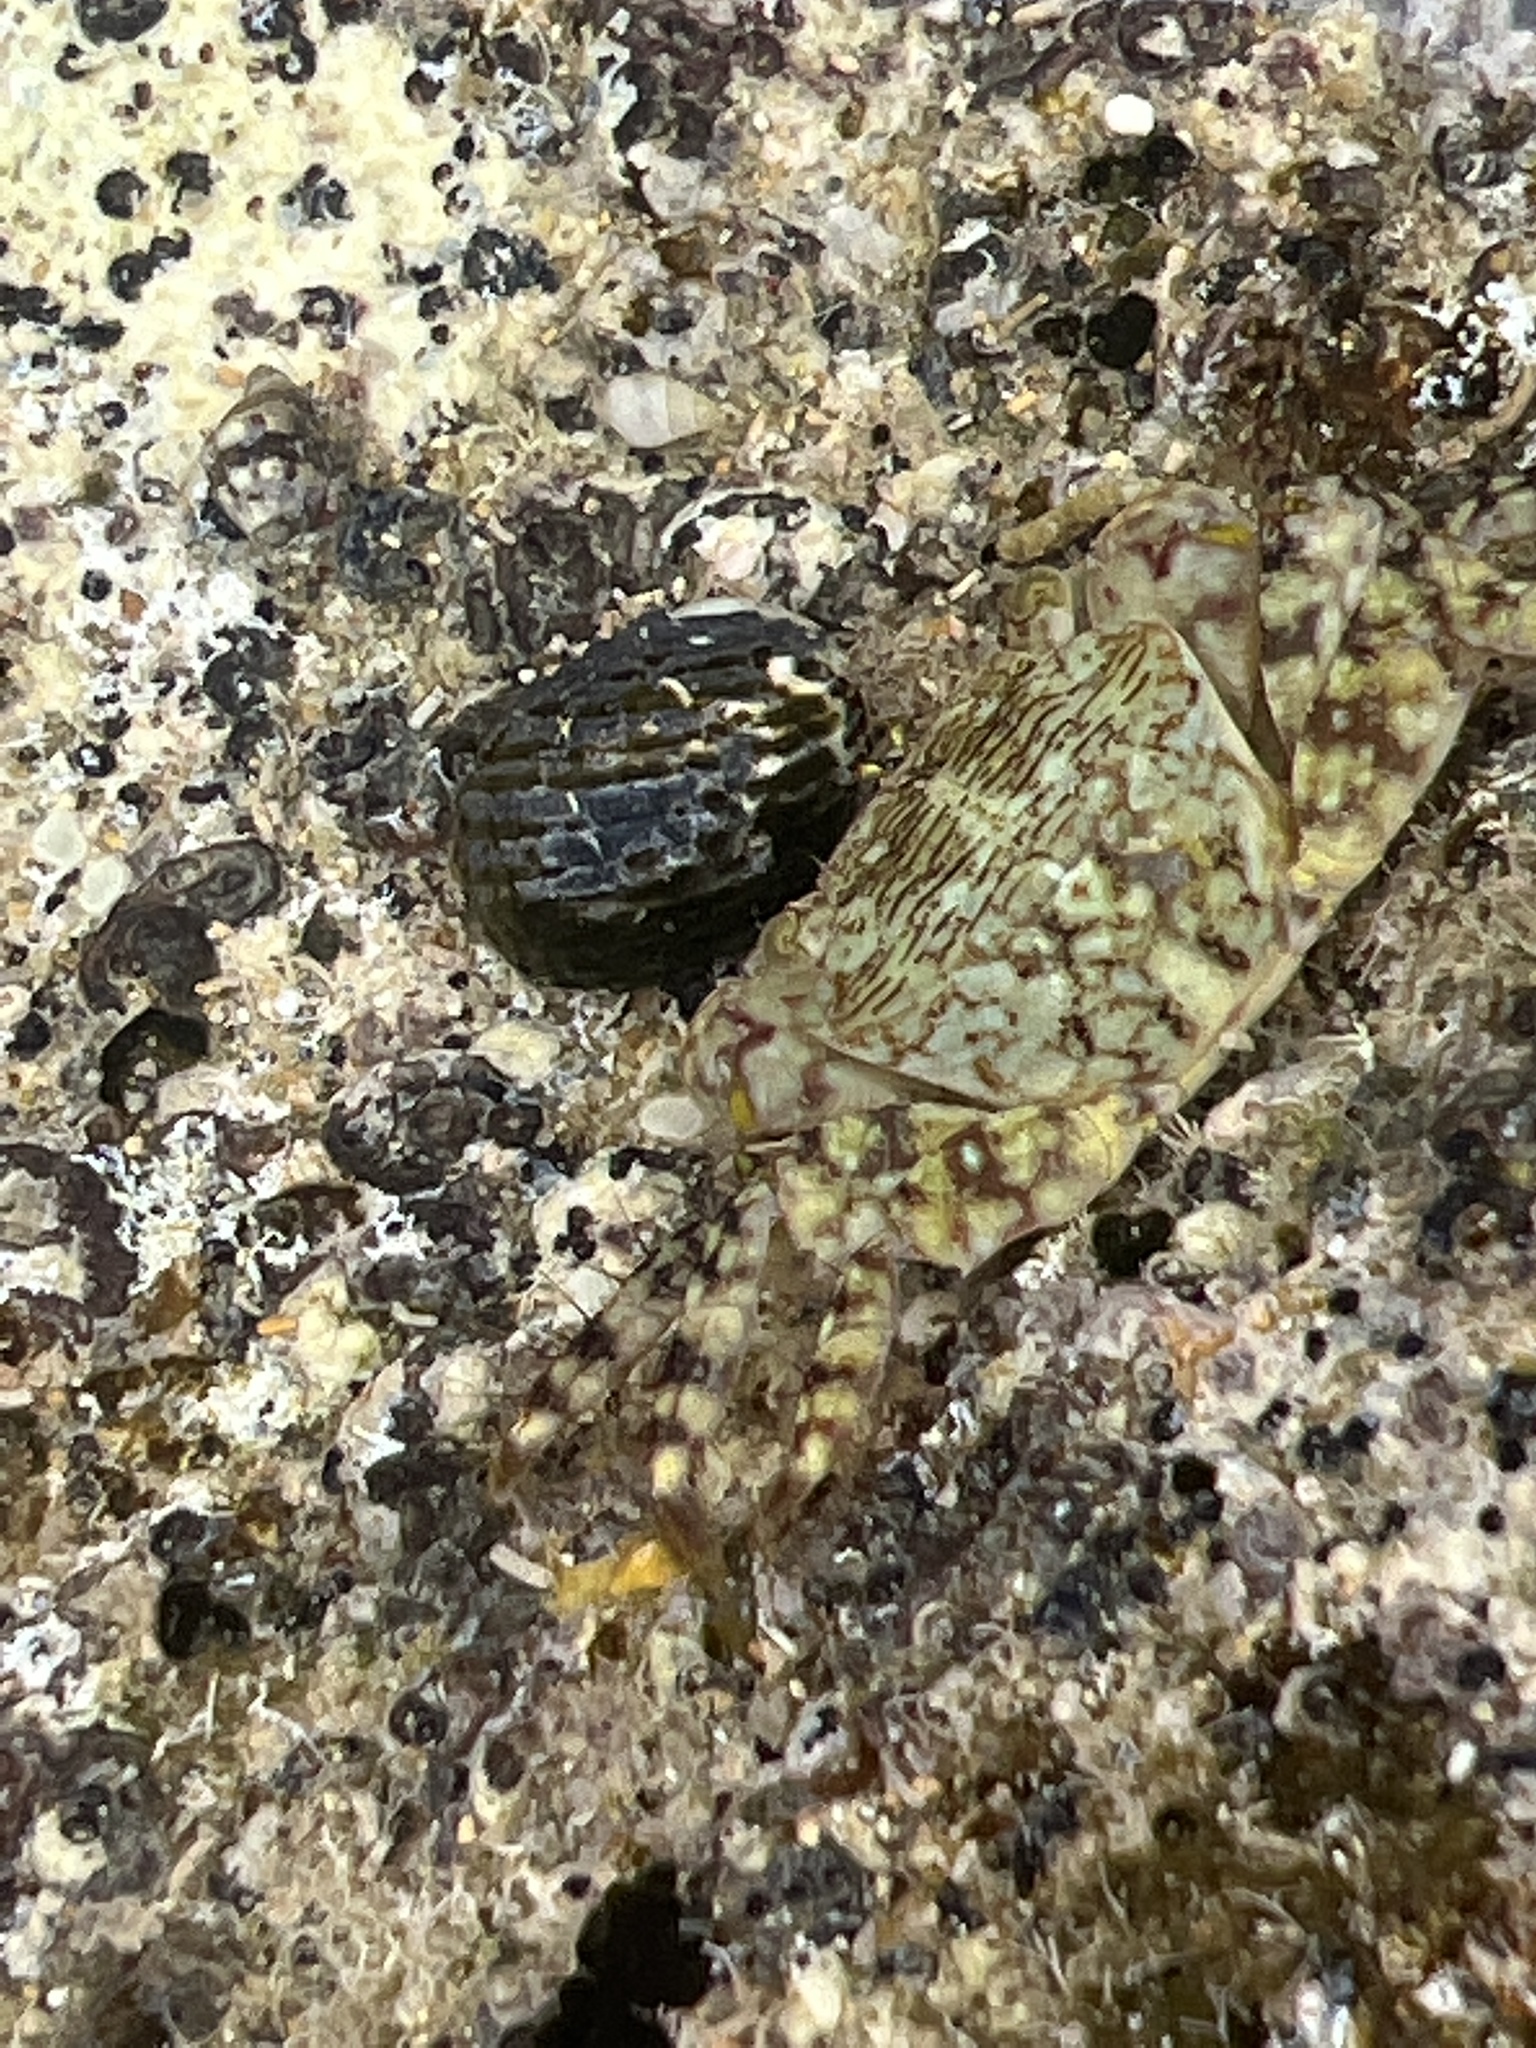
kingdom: Animalia
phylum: Arthropoda
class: Malacostraca
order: Decapoda
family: Grapsidae
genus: Pachygrapsus
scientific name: Pachygrapsus transversus
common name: Mottled shore crab
